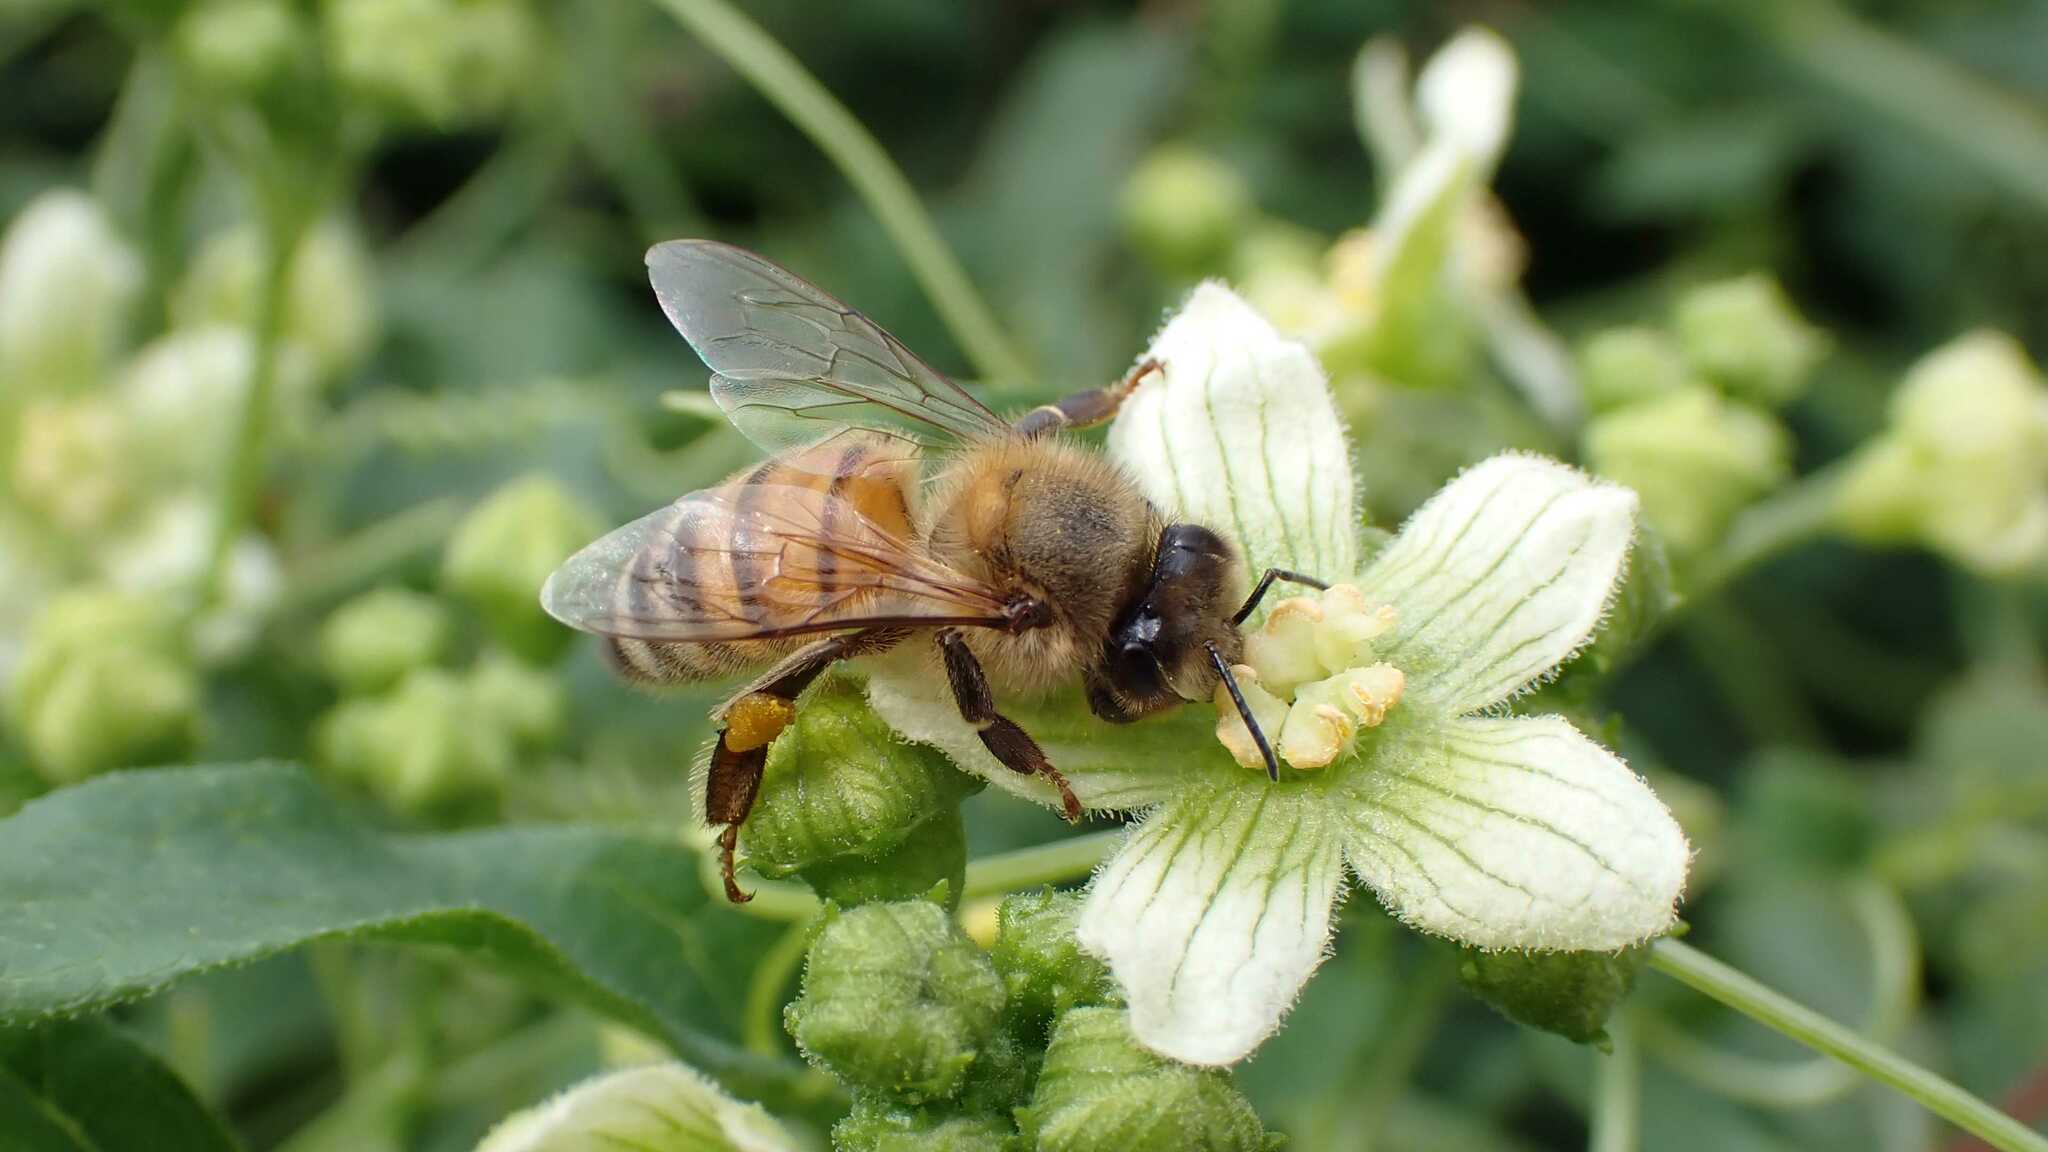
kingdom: Animalia
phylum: Arthropoda
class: Insecta
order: Hymenoptera
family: Apidae
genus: Apis
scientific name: Apis mellifera
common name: Honey bee
